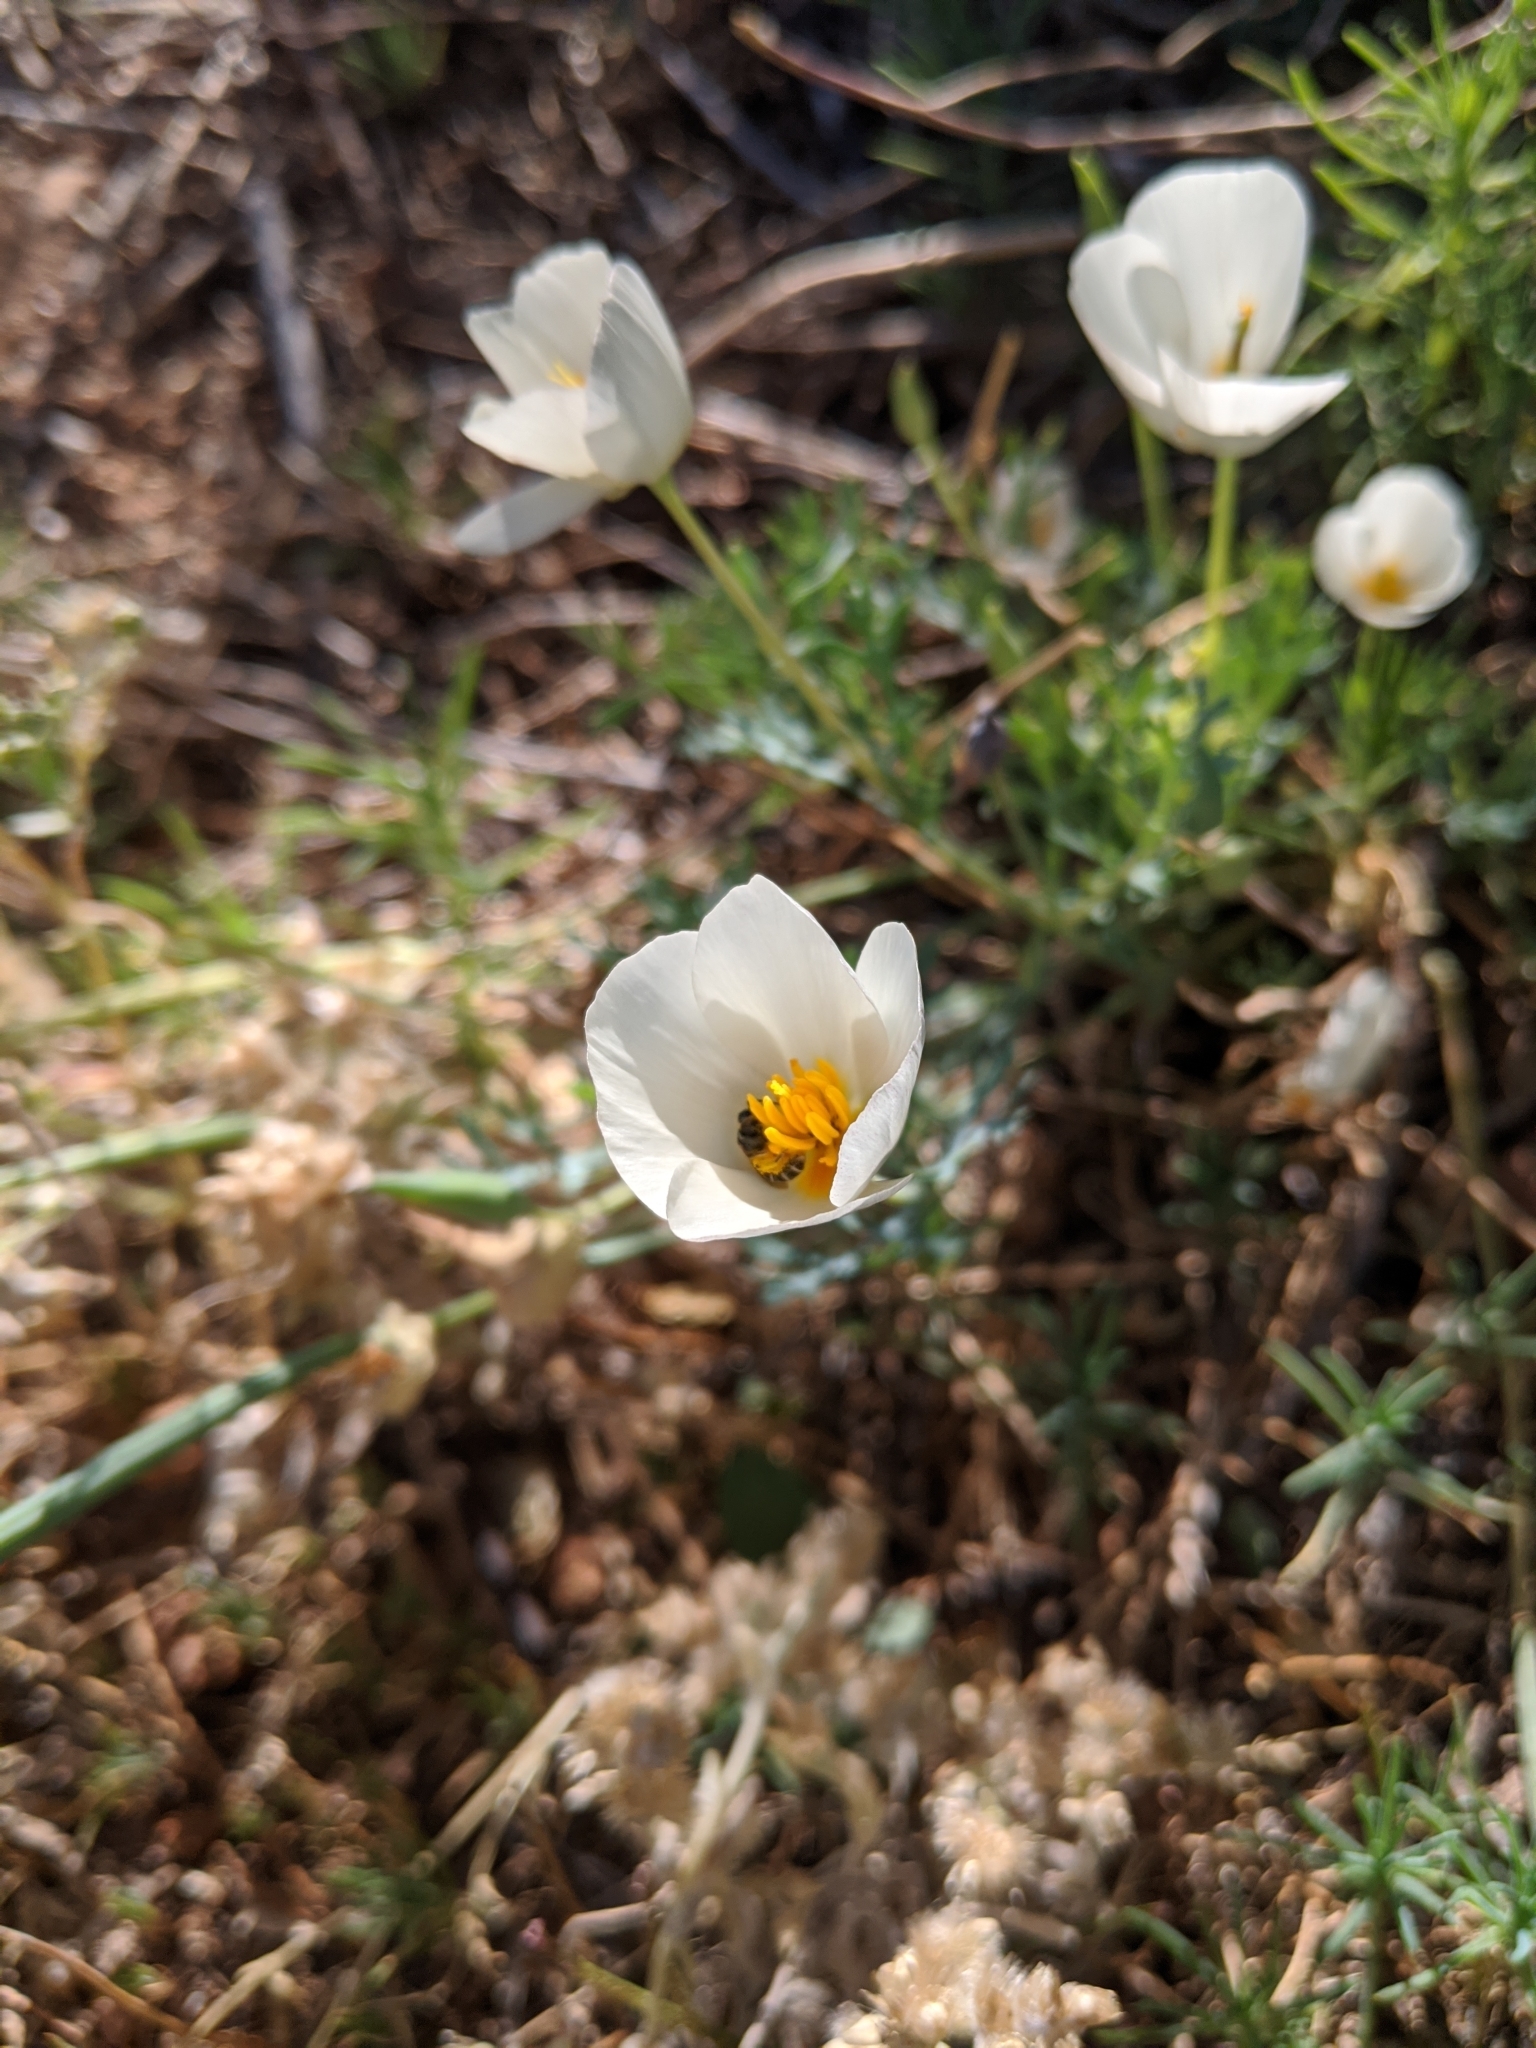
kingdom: Plantae
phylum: Tracheophyta
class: Magnoliopsida
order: Ranunculales
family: Papaveraceae
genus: Eschscholzia
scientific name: Eschscholzia californica
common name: California poppy
